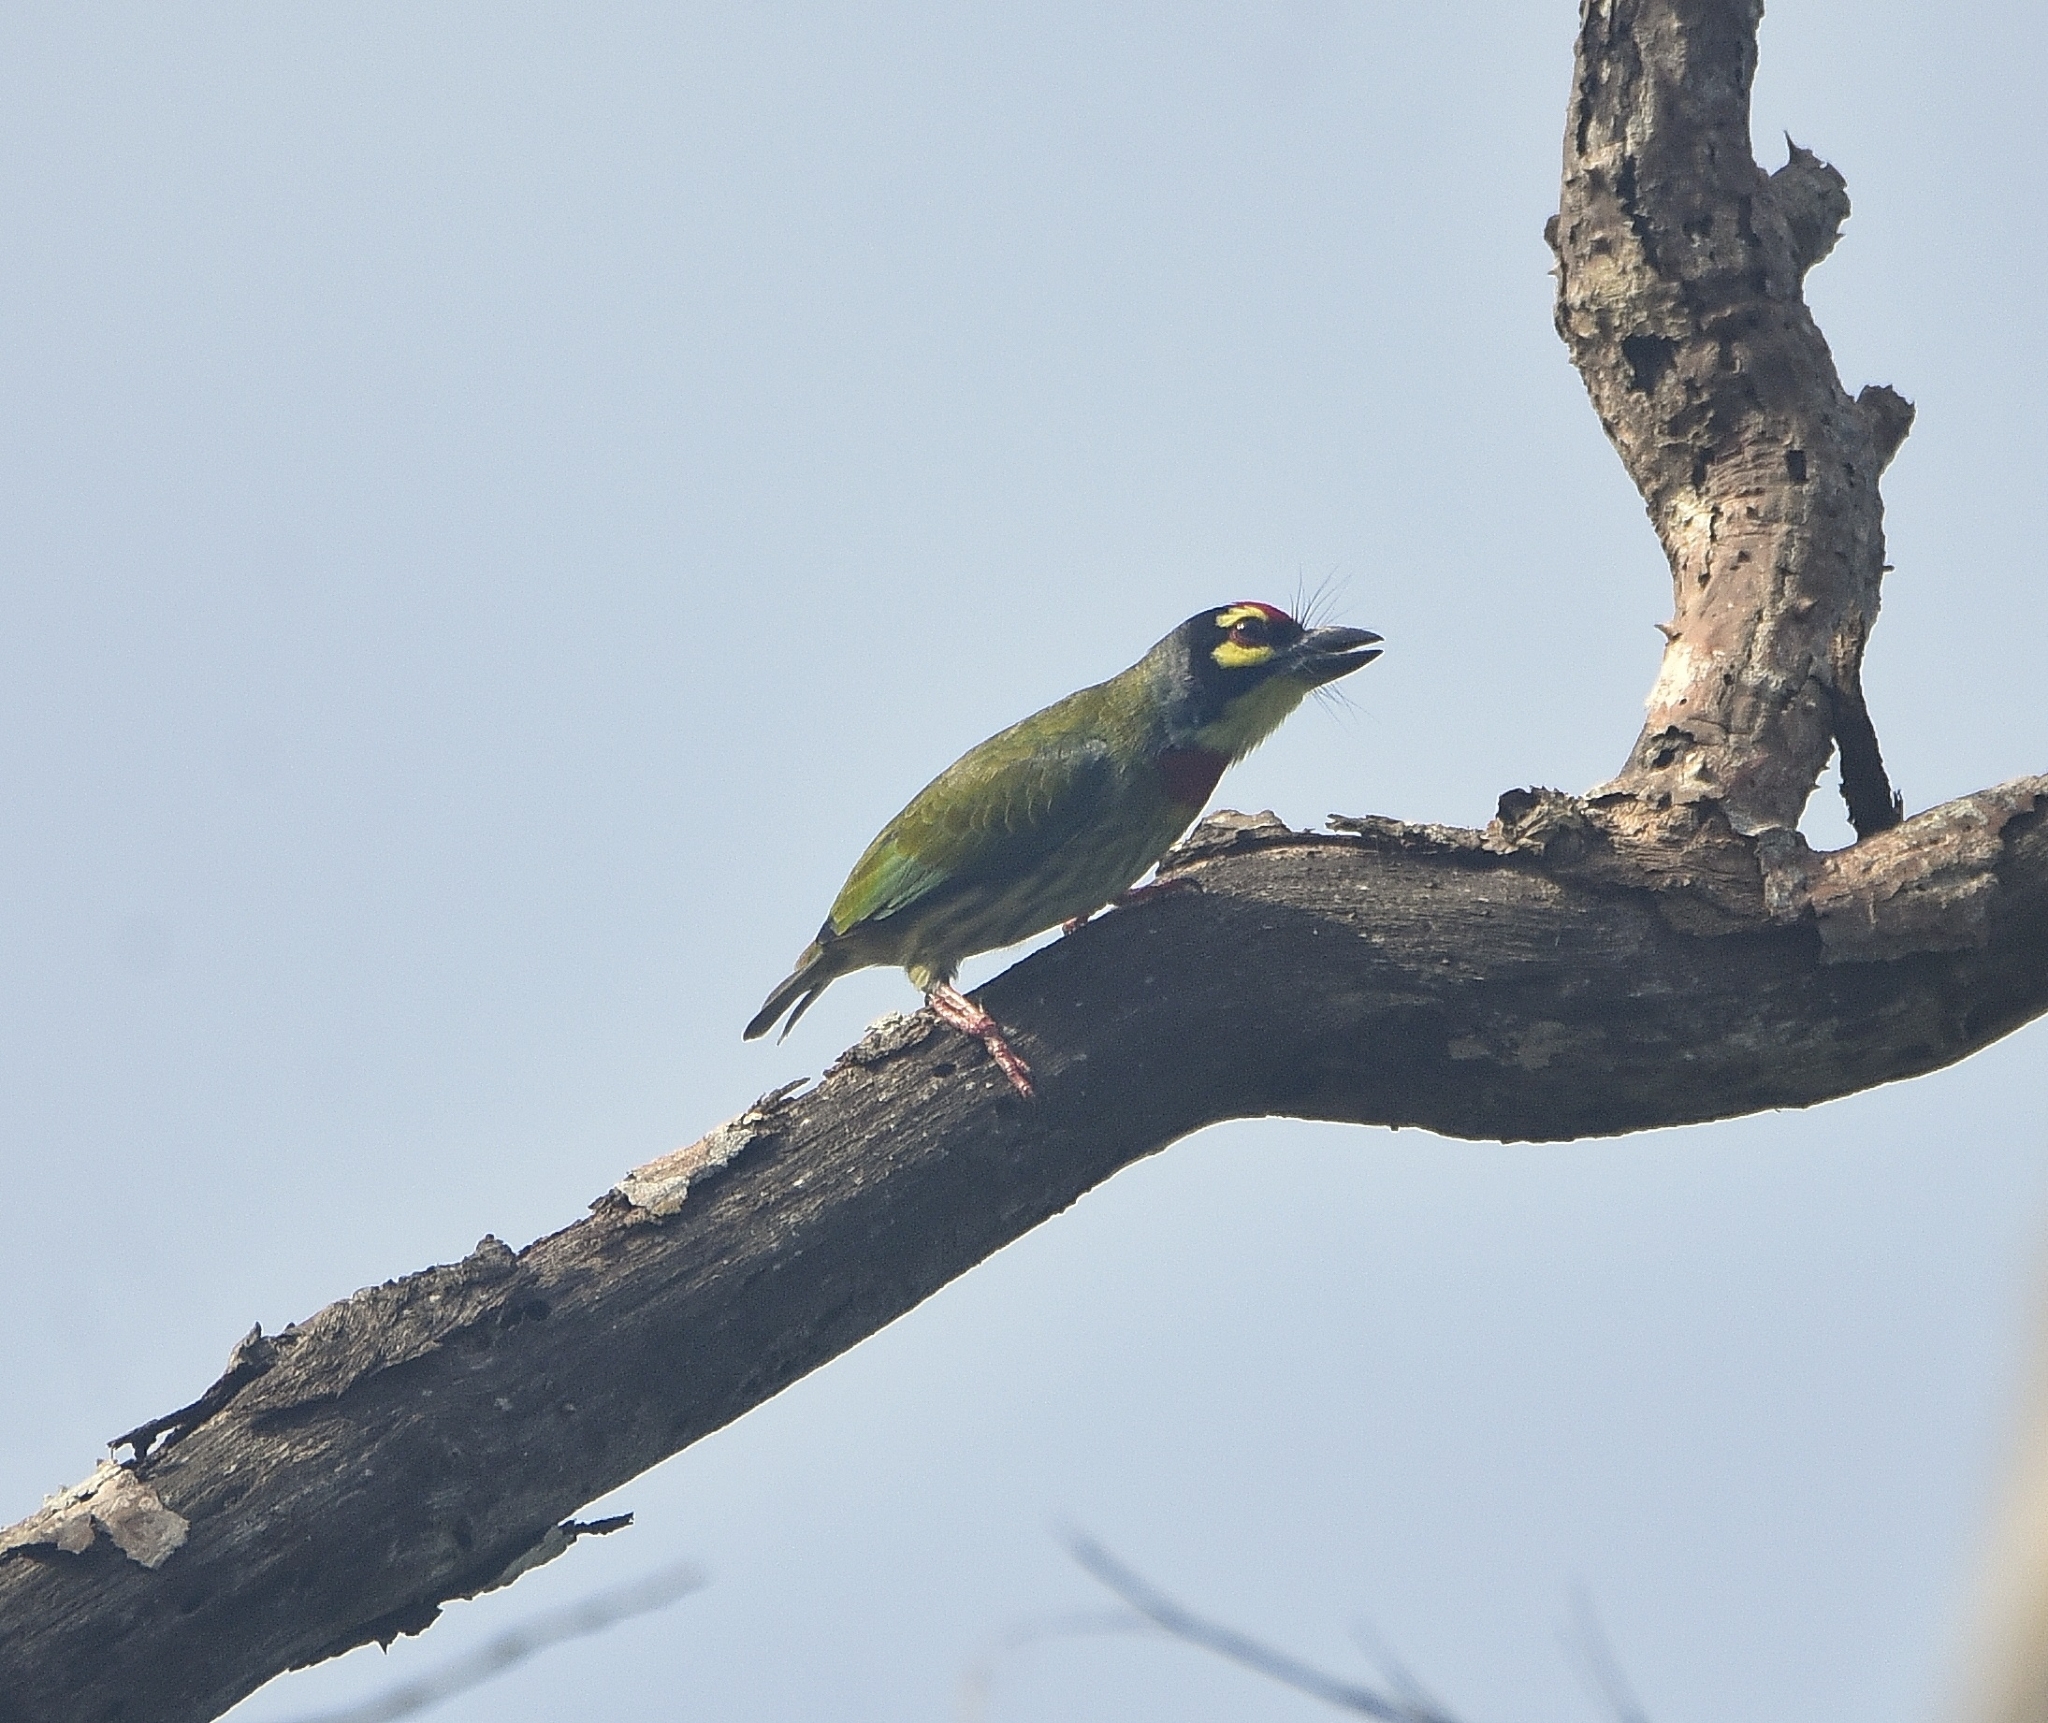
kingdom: Animalia
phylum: Chordata
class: Aves
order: Piciformes
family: Megalaimidae
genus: Psilopogon
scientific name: Psilopogon haemacephalus
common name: Coppersmith barbet
